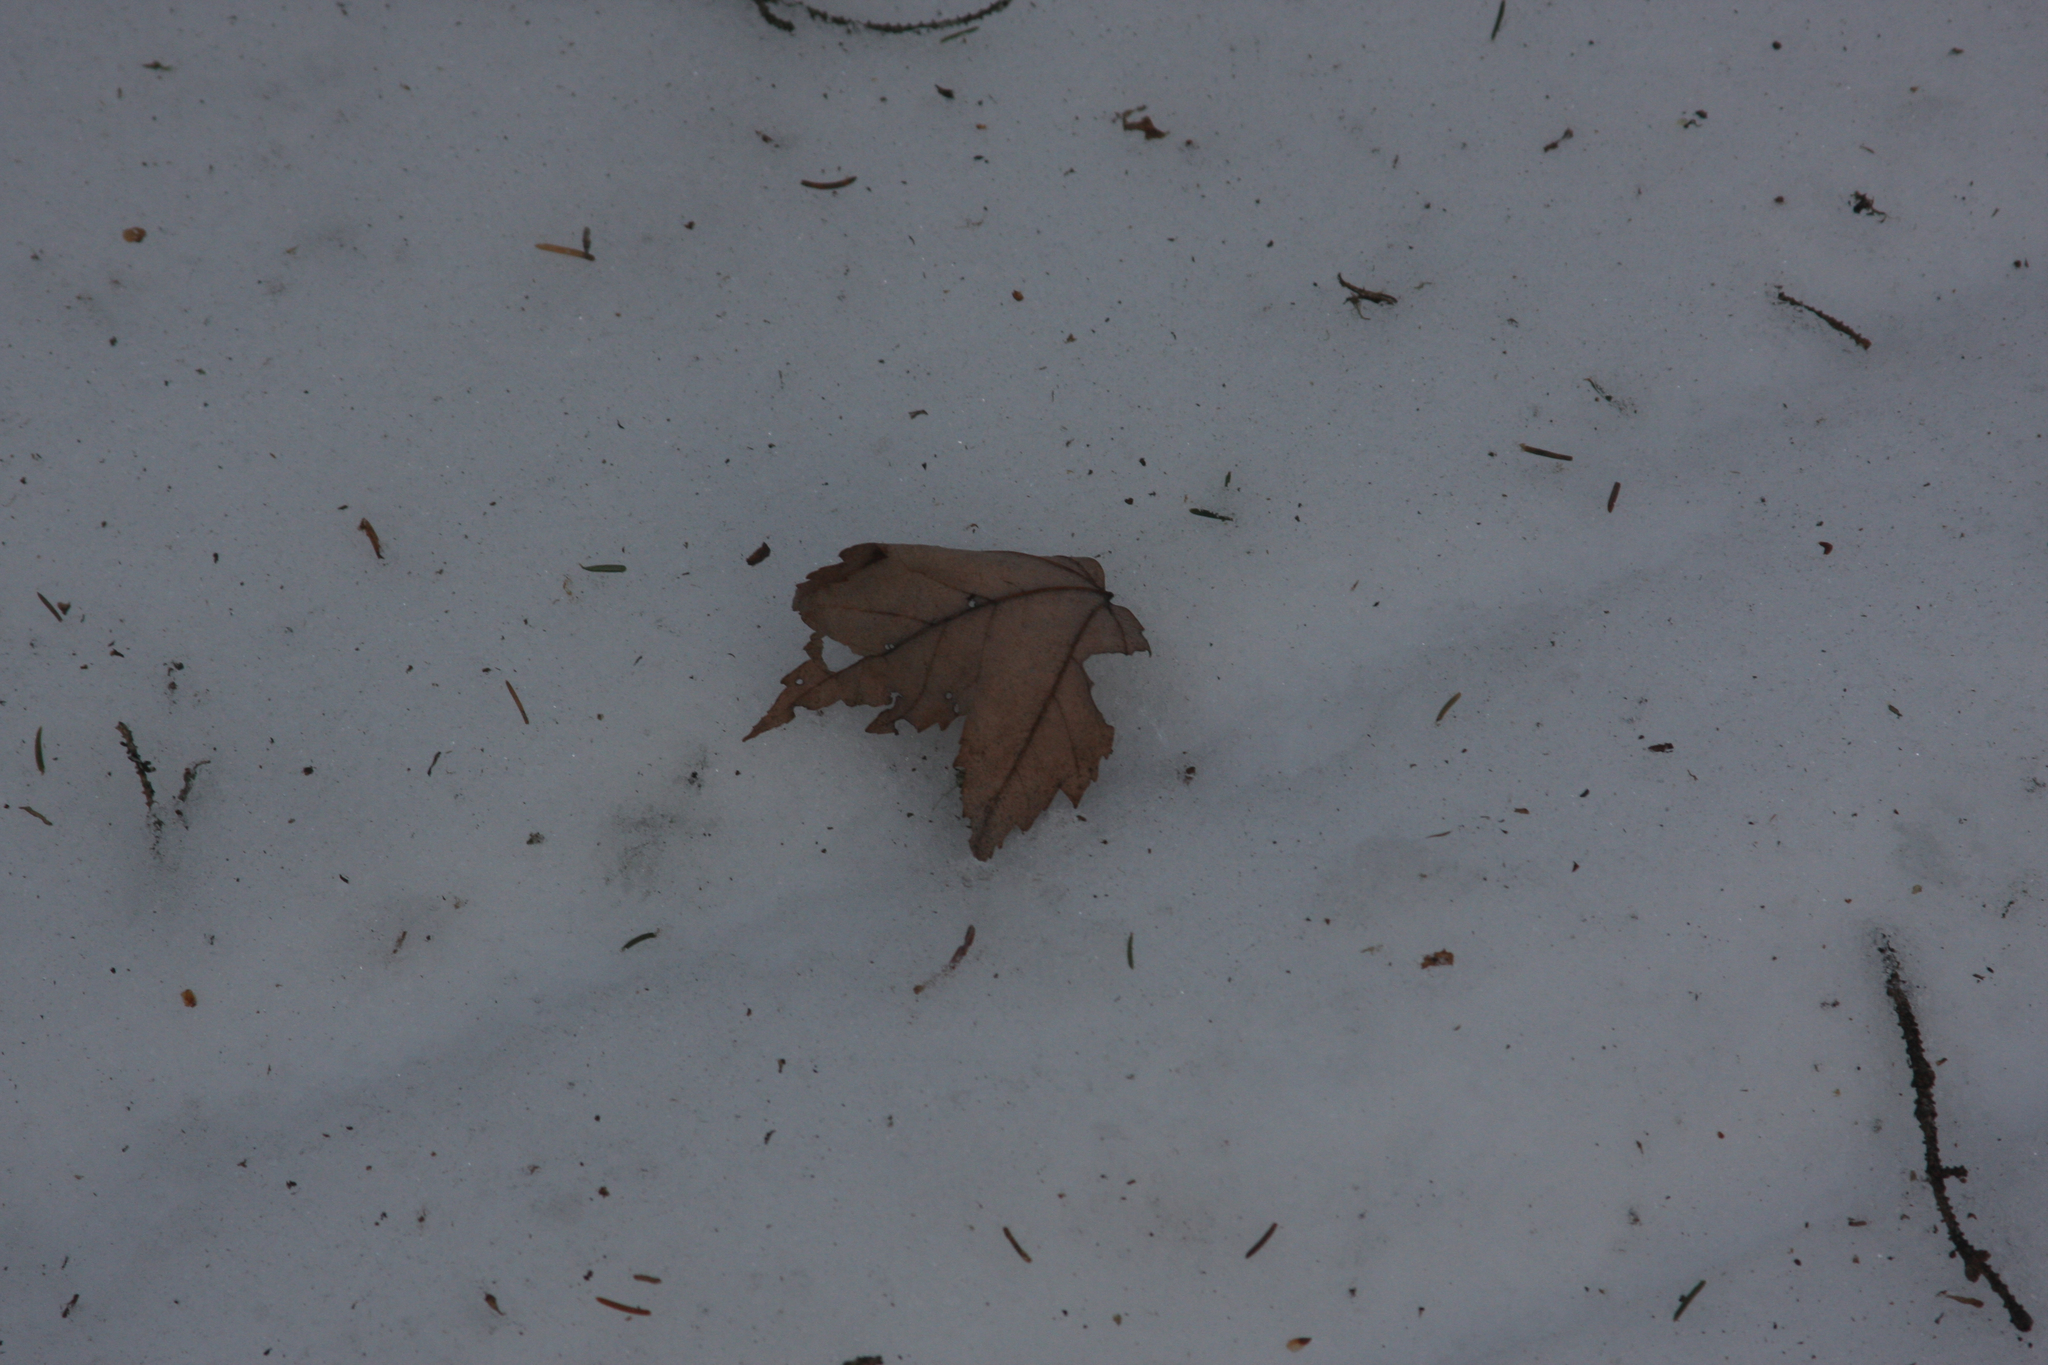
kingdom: Plantae
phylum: Tracheophyta
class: Magnoliopsida
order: Sapindales
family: Sapindaceae
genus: Acer
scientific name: Acer rubrum
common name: Red maple
